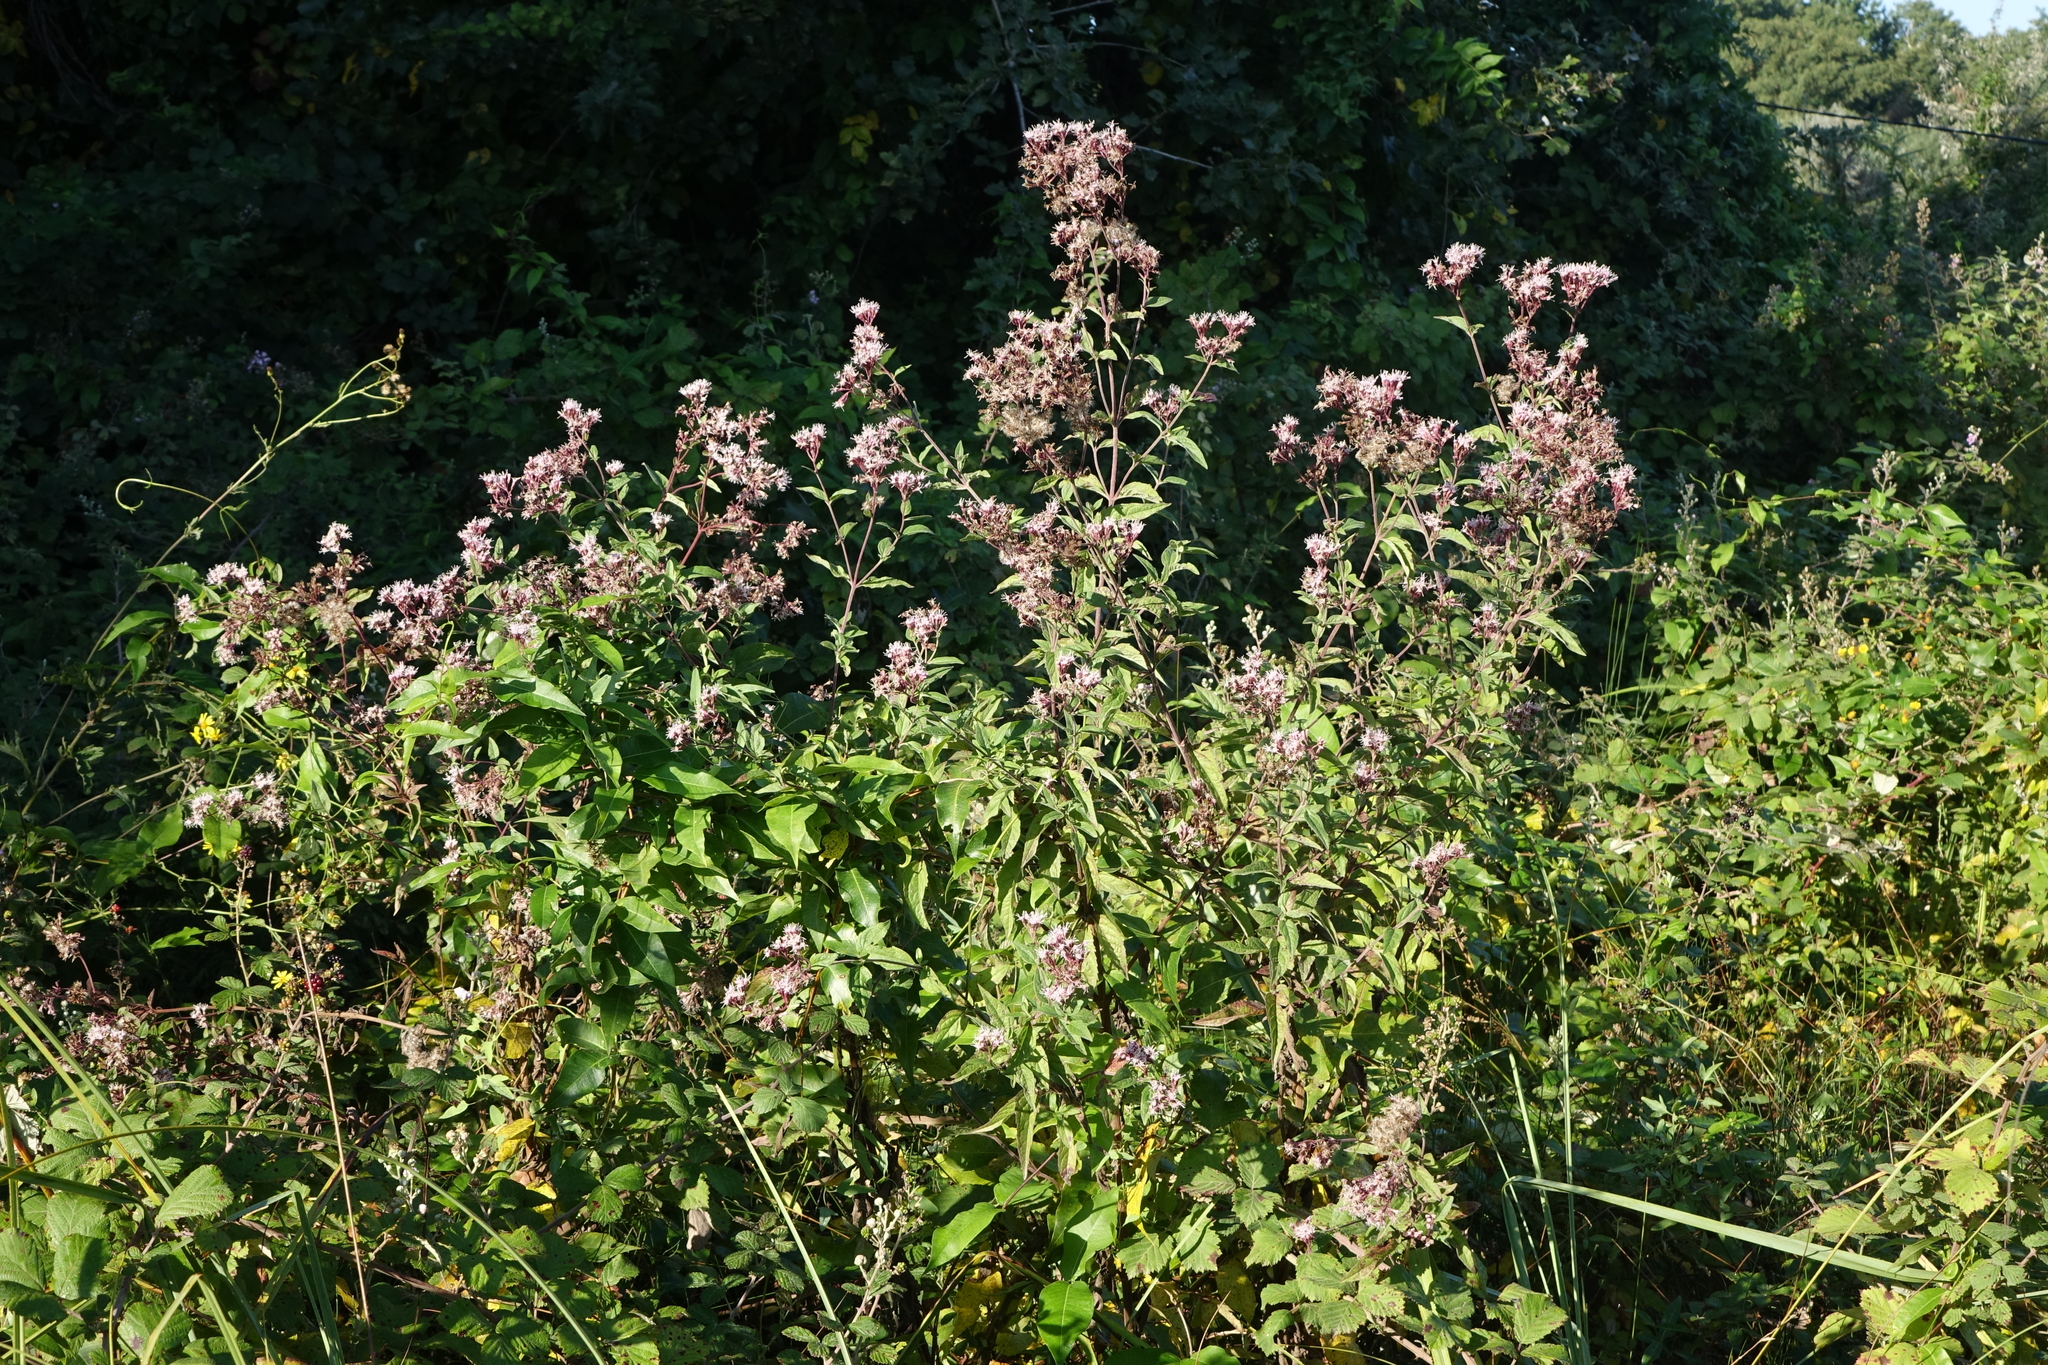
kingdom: Plantae
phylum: Tracheophyta
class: Magnoliopsida
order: Asterales
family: Asteraceae
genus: Eupatorium
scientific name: Eupatorium cannabinum
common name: Hemp-agrimony
